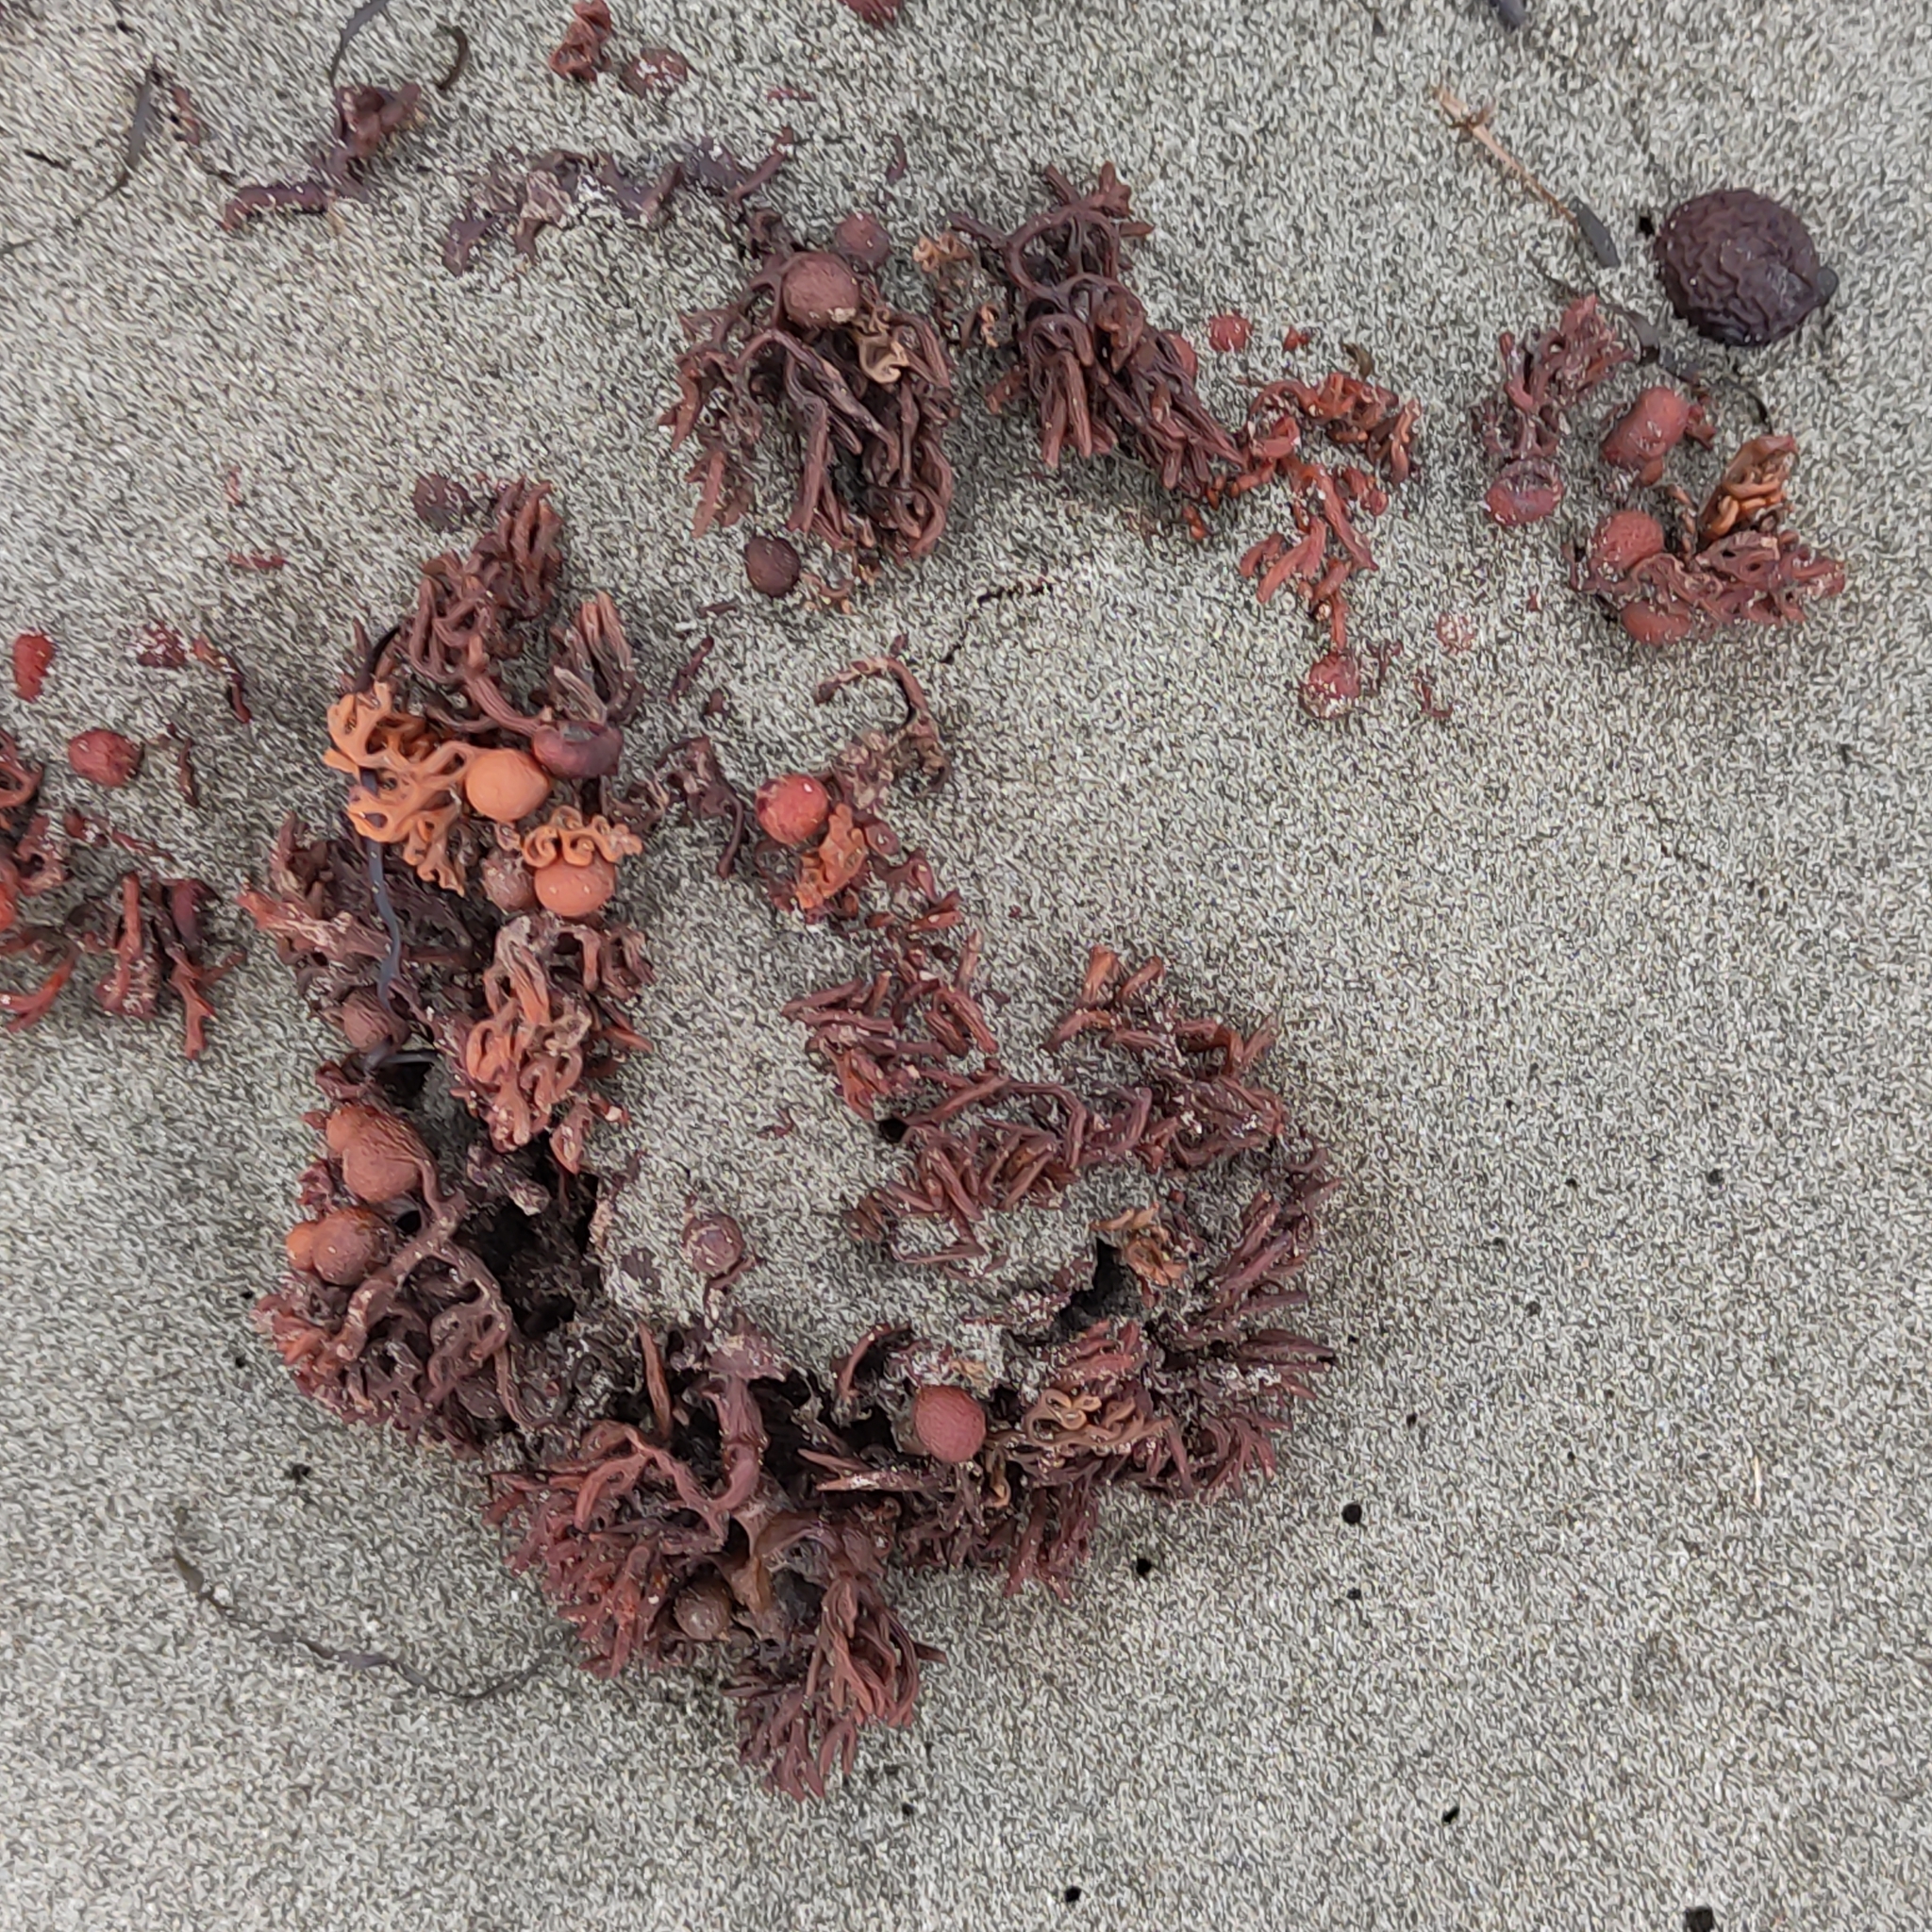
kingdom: Chromista
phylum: Ochrophyta
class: Phaeophyceae
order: Fucales
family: Sargassaceae
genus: Cystophora
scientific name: Cystophora torulosa
